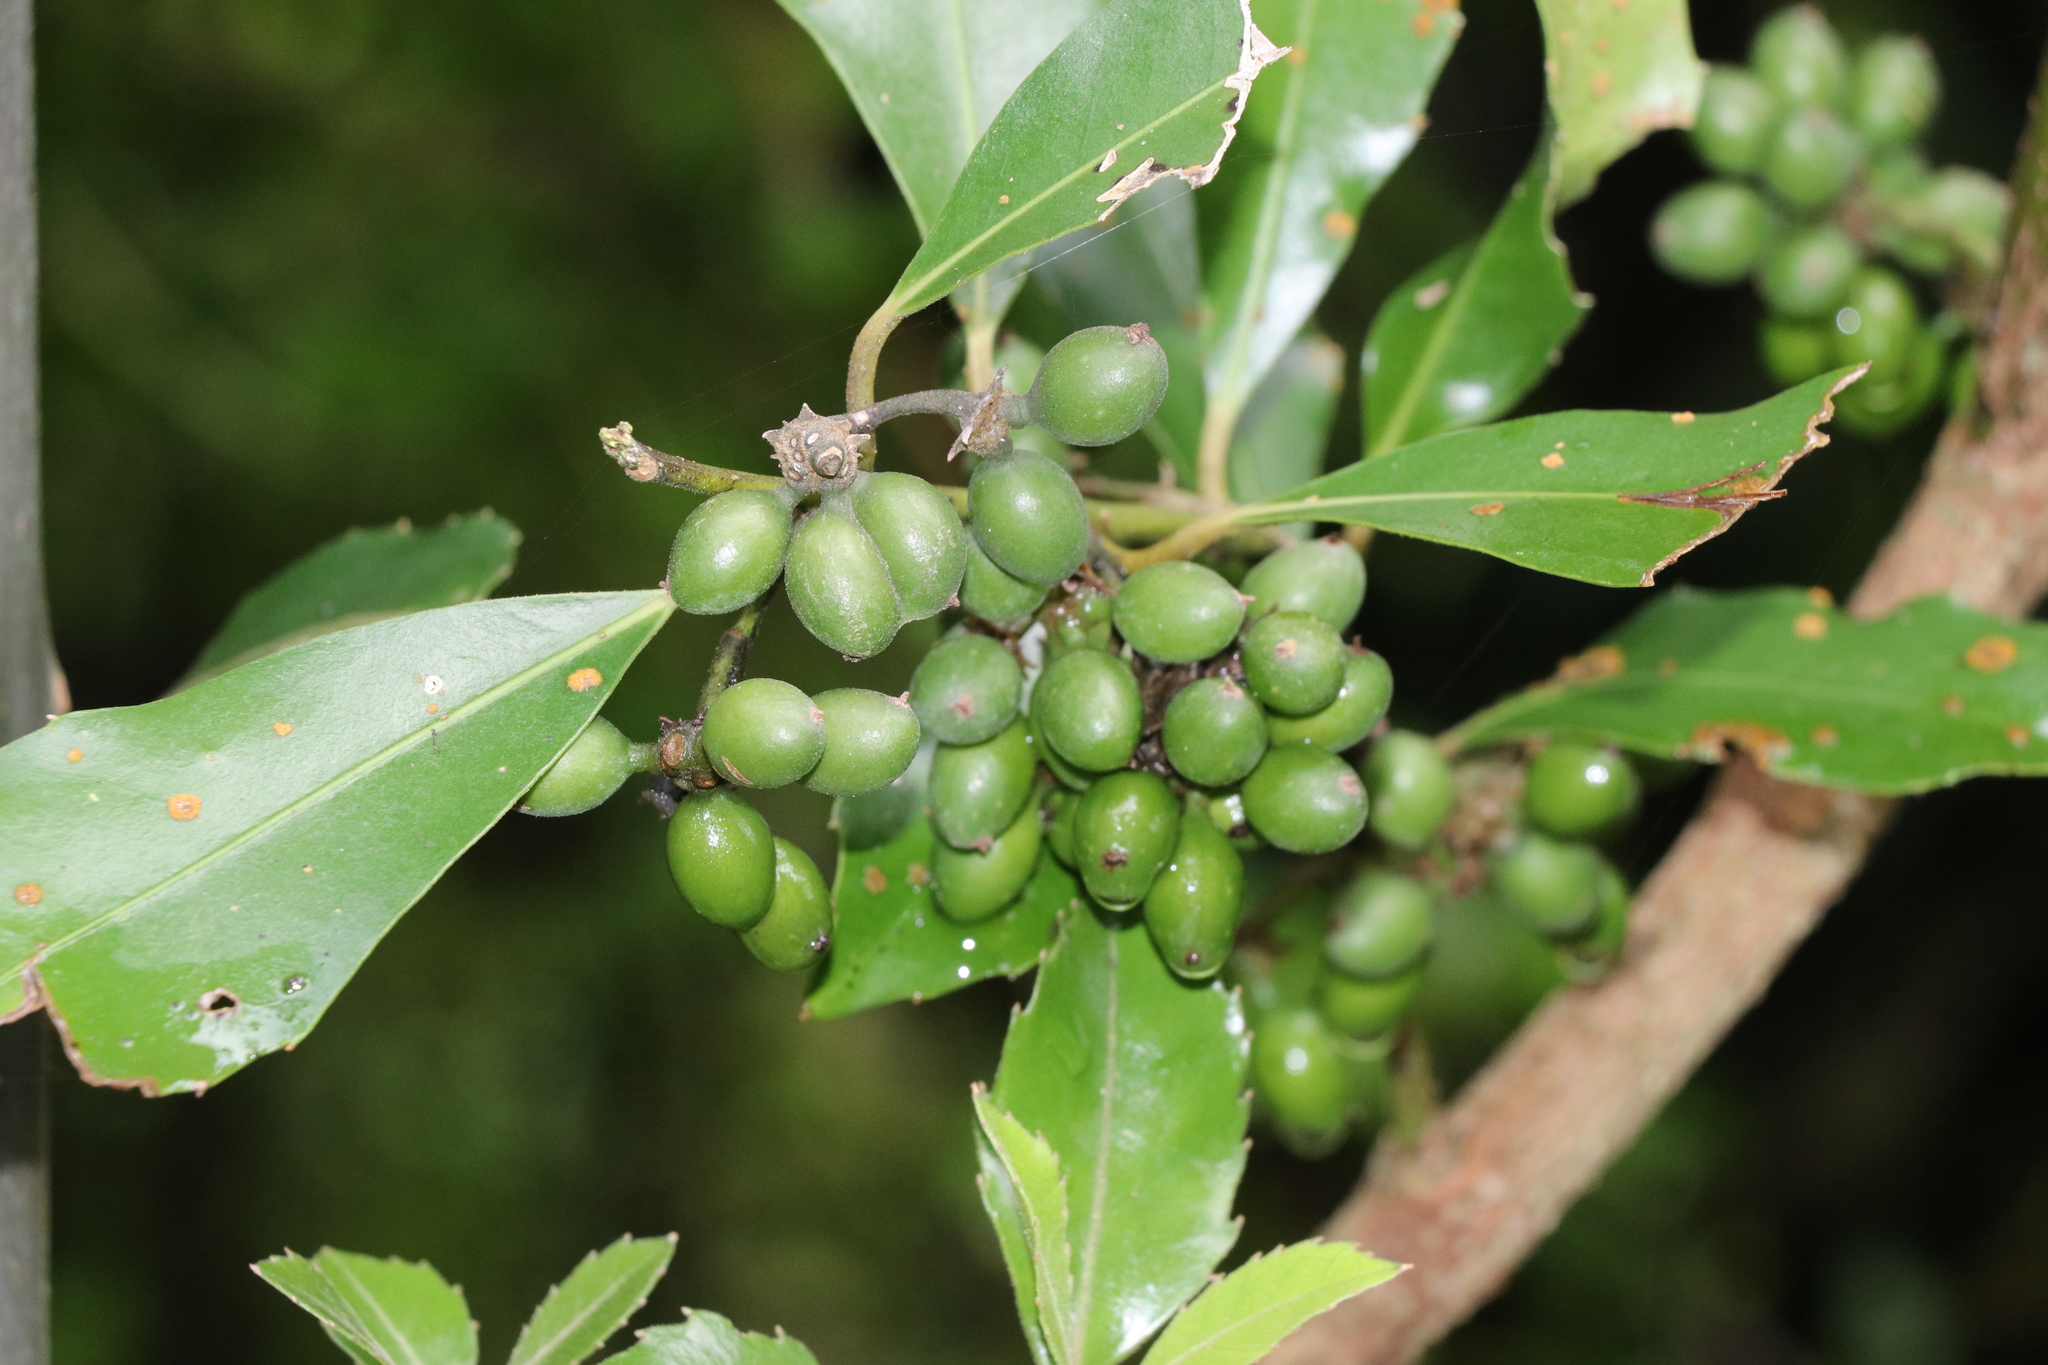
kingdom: Plantae
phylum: Tracheophyta
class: Magnoliopsida
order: Laurales
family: Monimiaceae
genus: Hedycarya
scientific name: Hedycarya arborea
